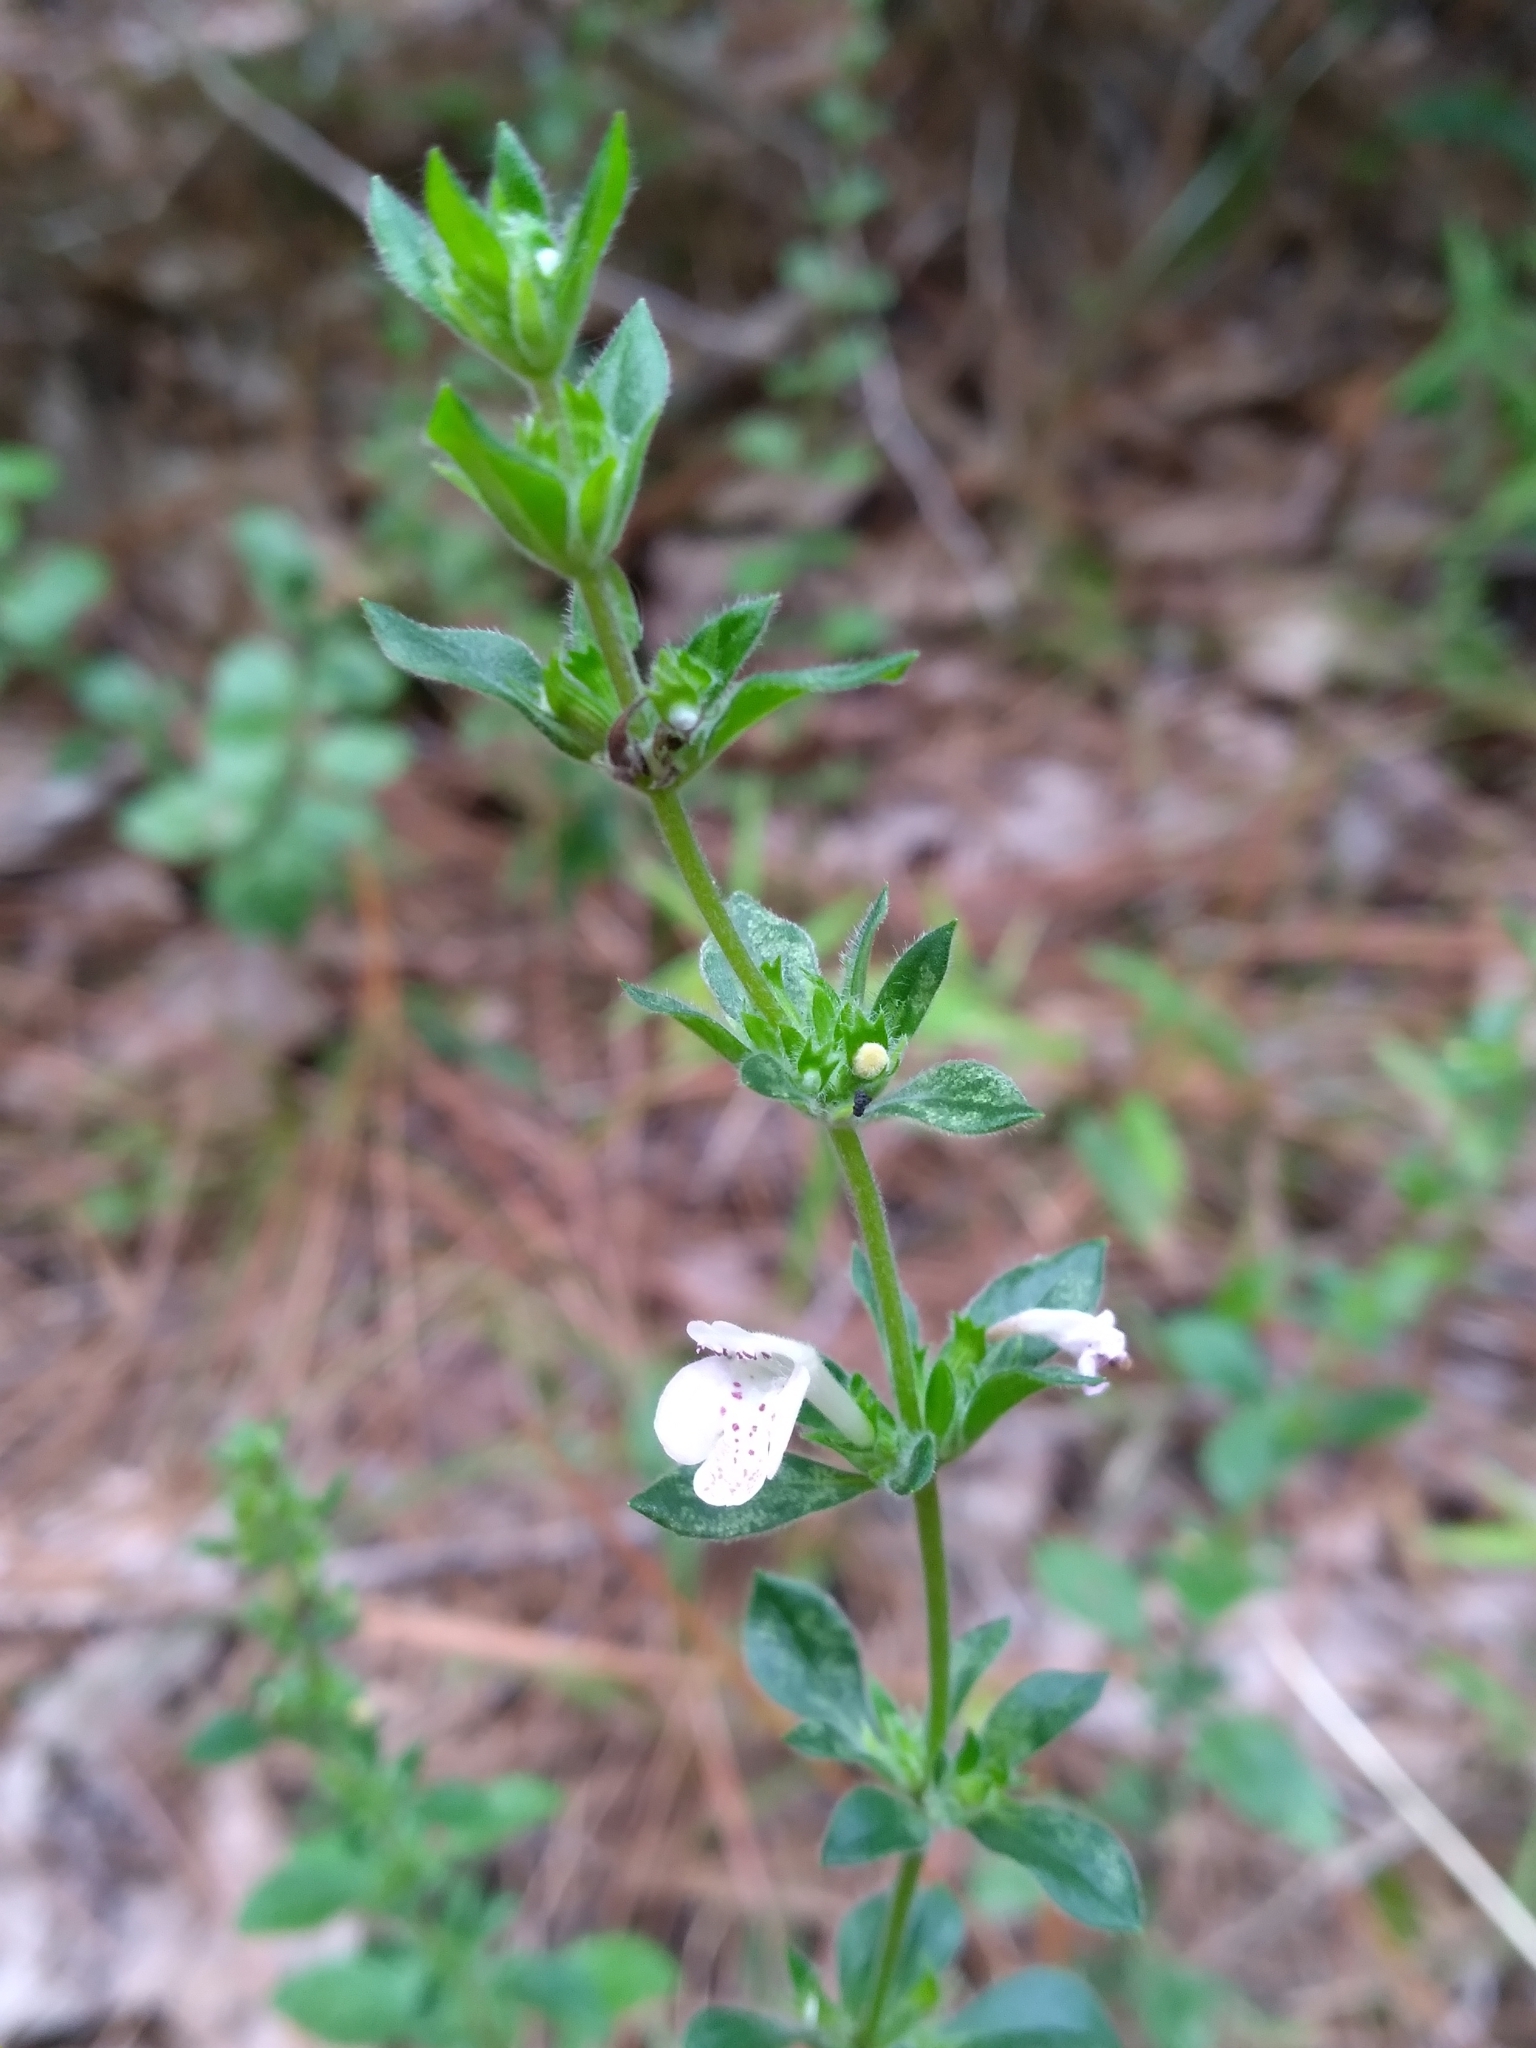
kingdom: Plantae
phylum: Tracheophyta
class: Magnoliopsida
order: Lamiales
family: Lamiaceae
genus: Clinopodium
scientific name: Clinopodium talladeganum
